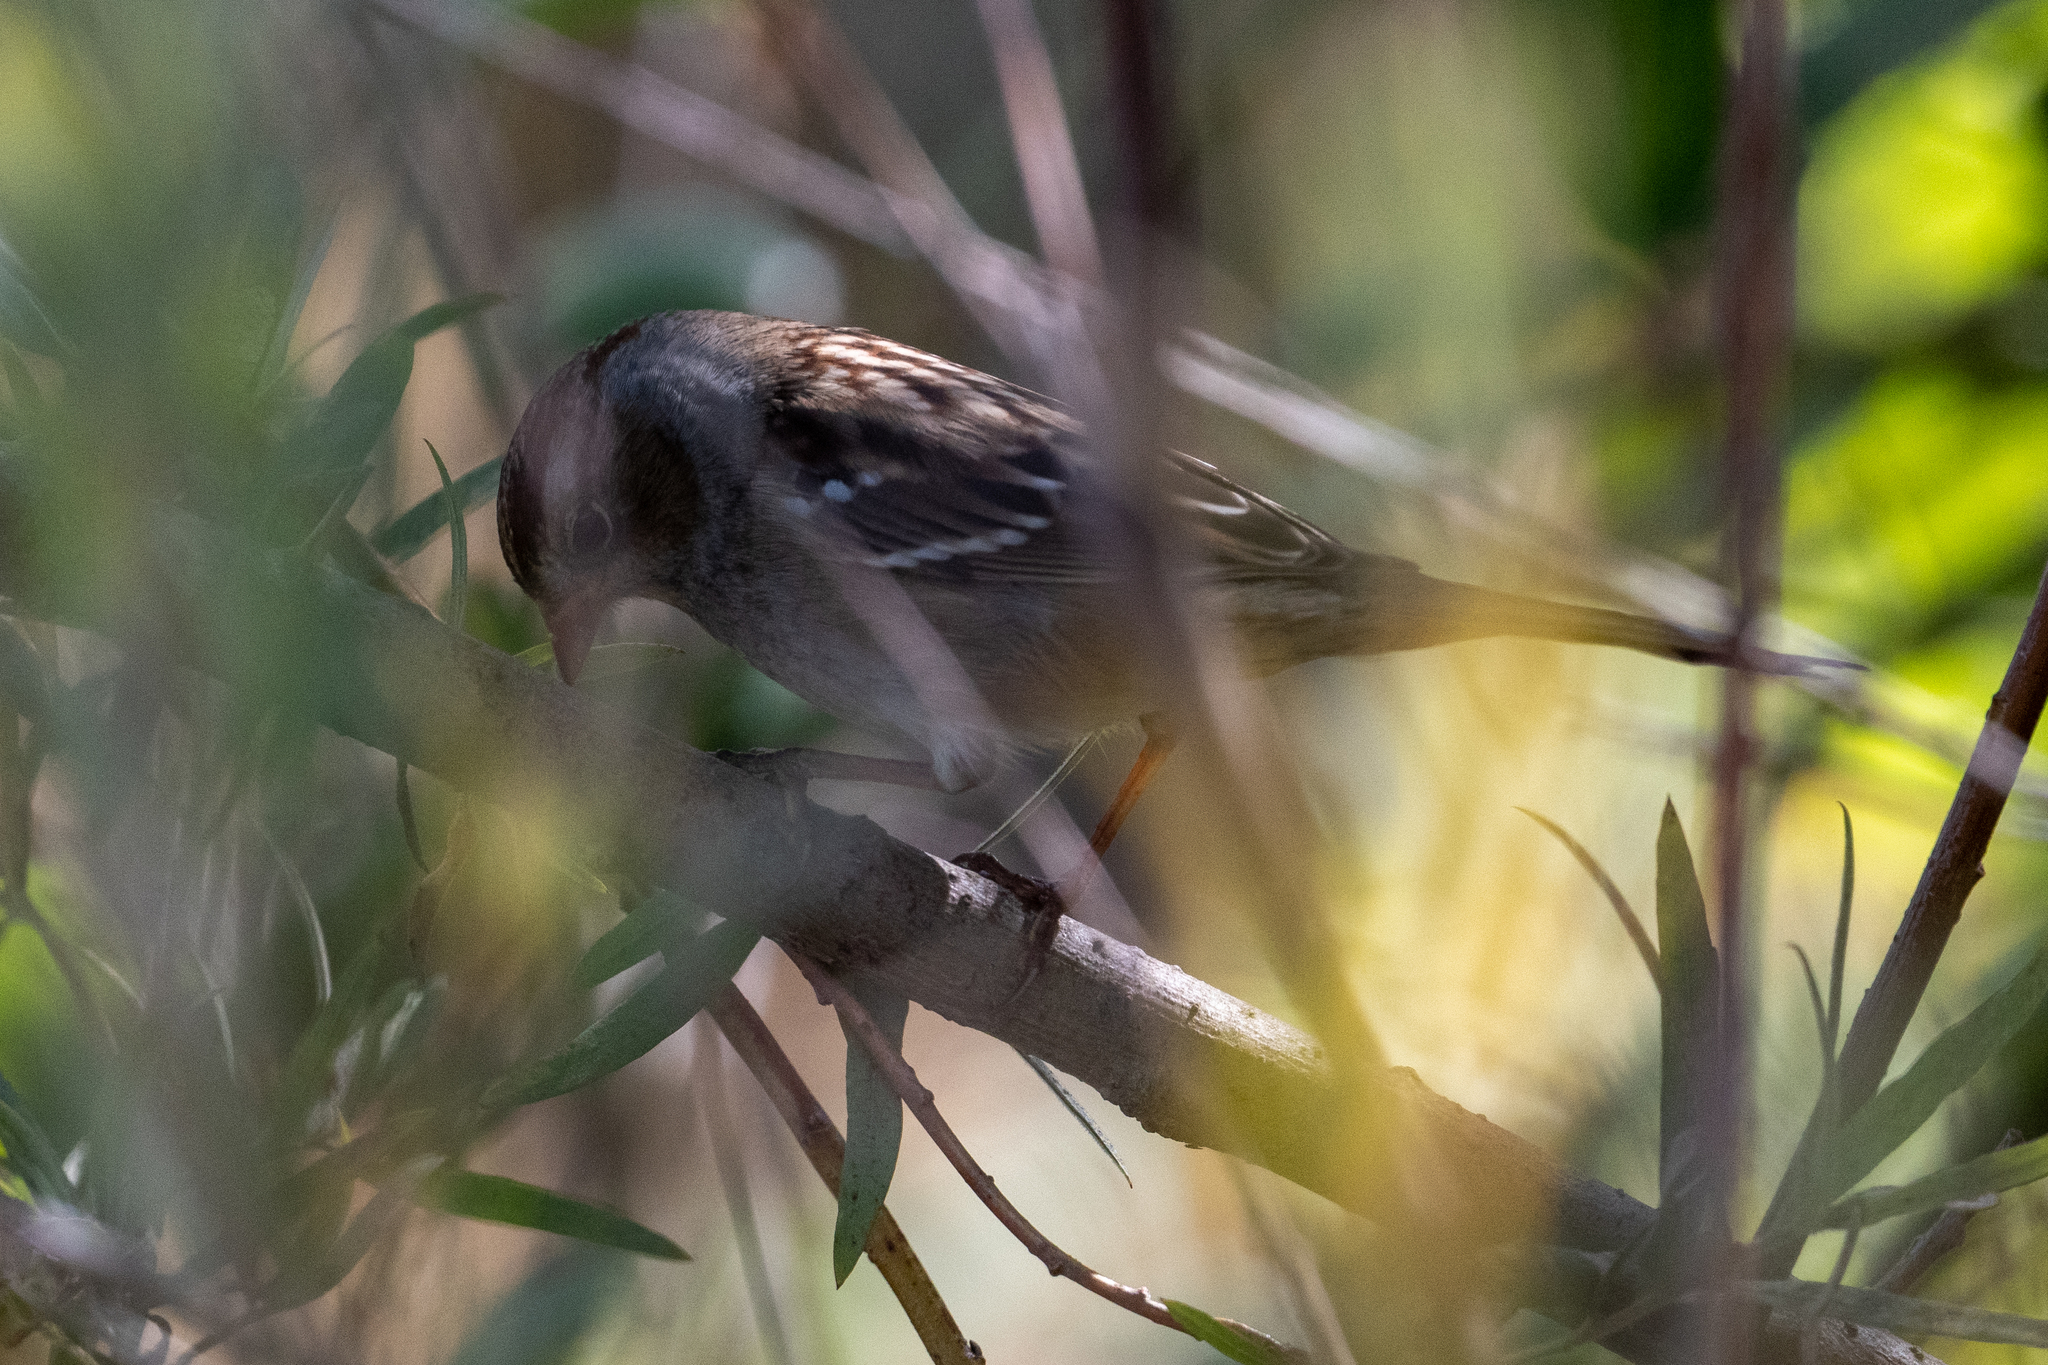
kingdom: Animalia
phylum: Chordata
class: Aves
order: Passeriformes
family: Passerellidae
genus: Zonotrichia
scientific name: Zonotrichia leucophrys
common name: White-crowned sparrow
